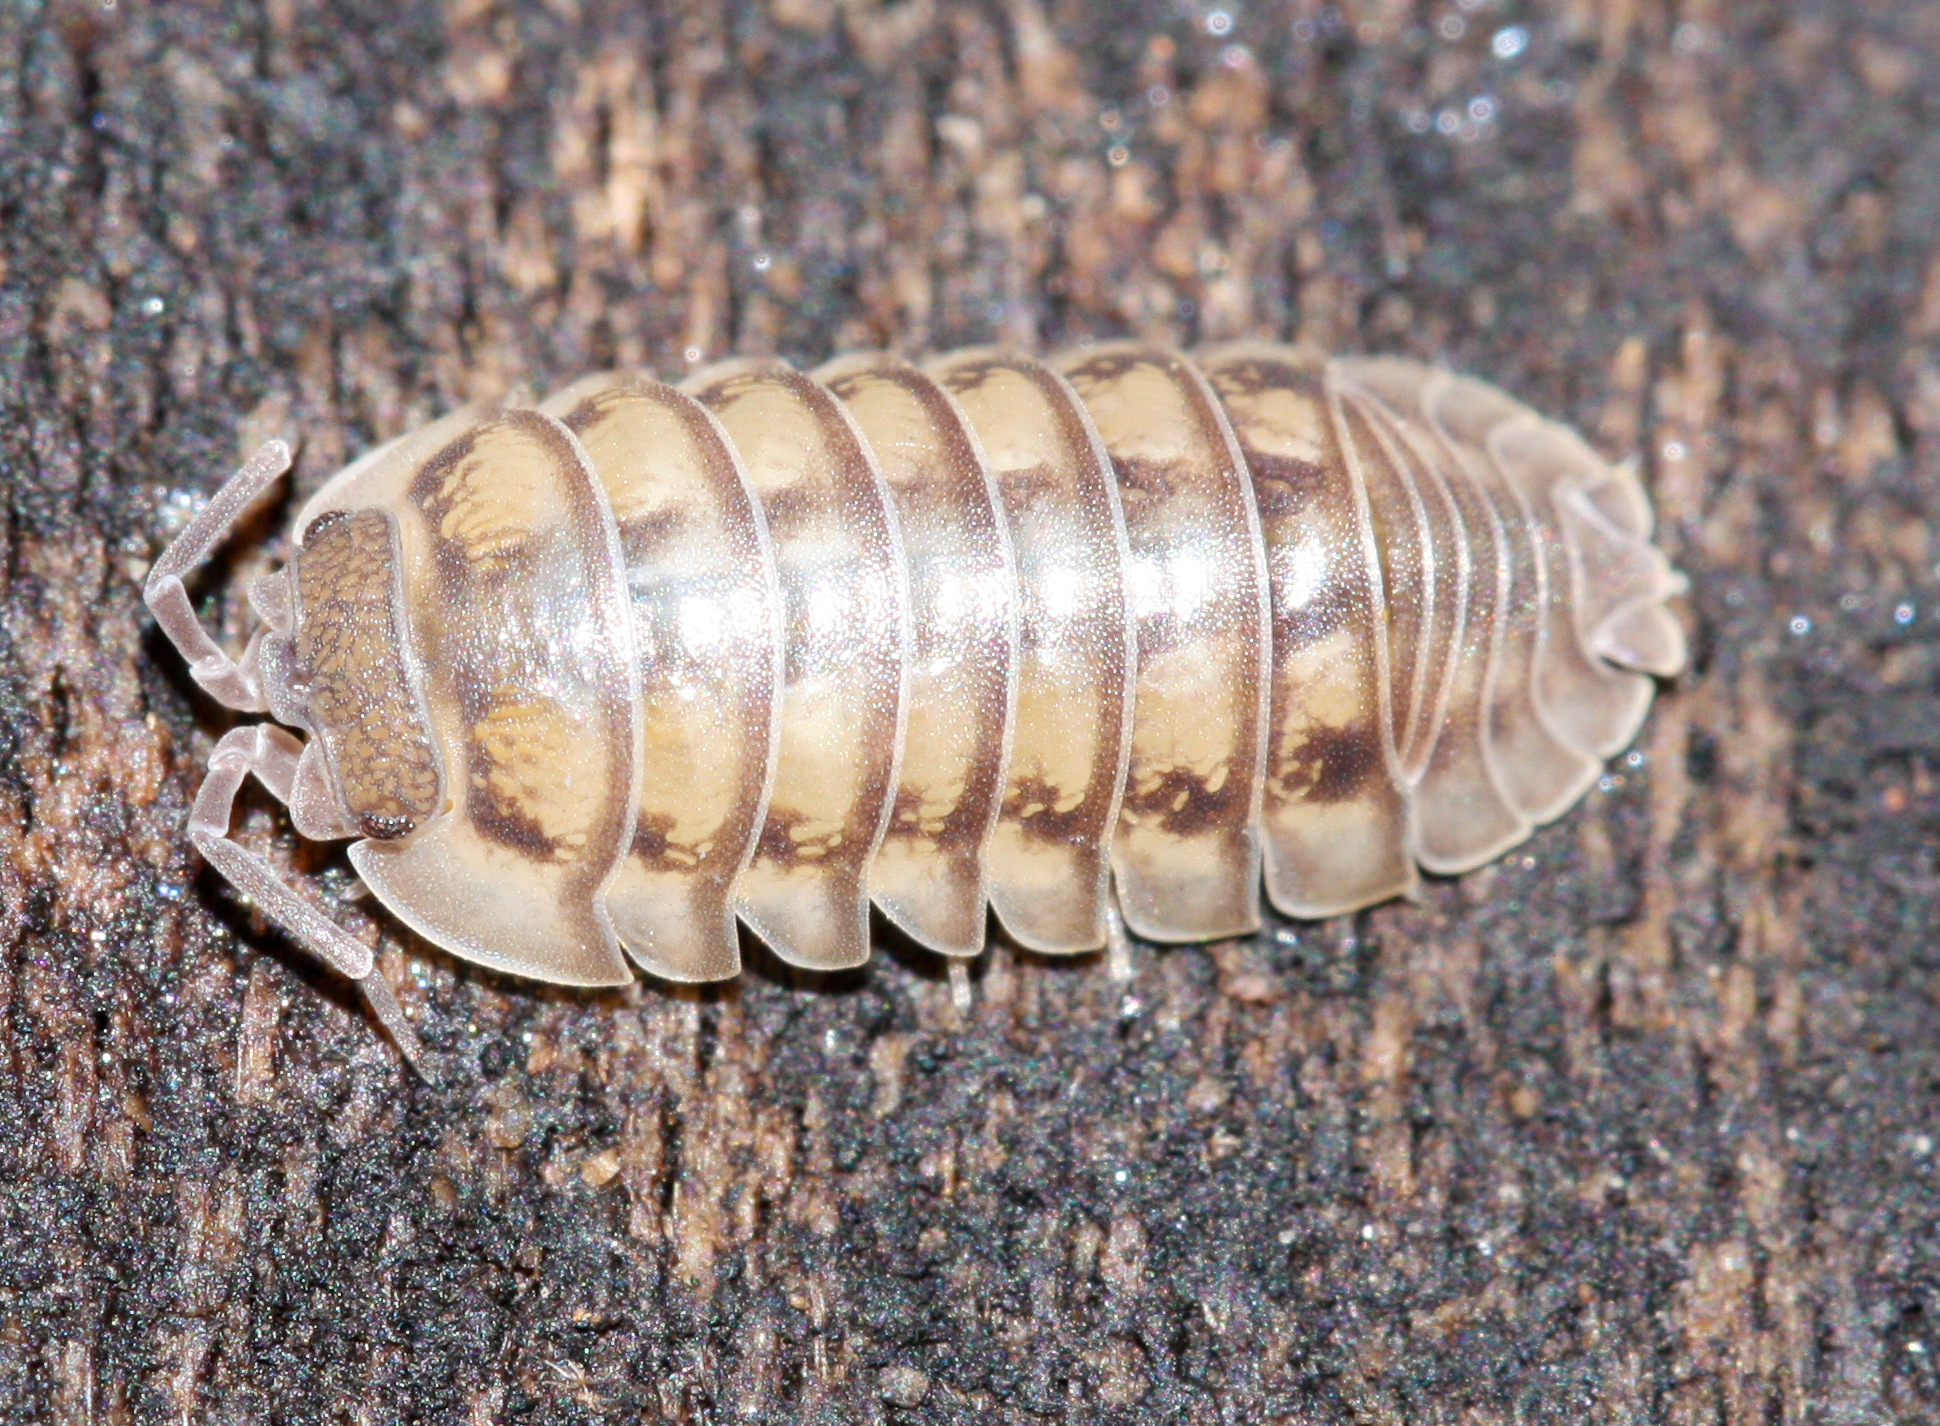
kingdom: Animalia
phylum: Arthropoda
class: Malacostraca
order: Isopoda
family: Armadillidiidae
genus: Armadillidium
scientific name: Armadillidium nasatum
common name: Isopod
